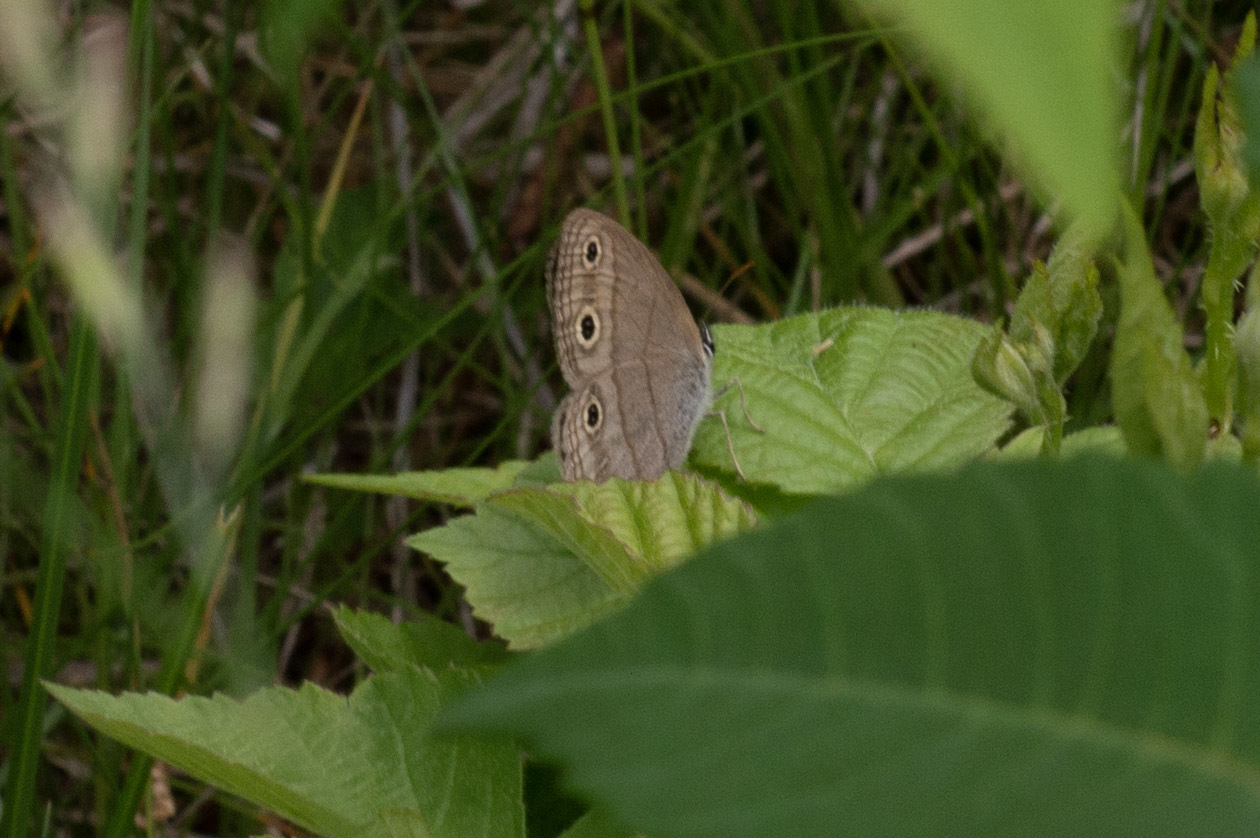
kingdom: Animalia
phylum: Arthropoda
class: Insecta
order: Lepidoptera
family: Nymphalidae
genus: Euptychia
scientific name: Euptychia cymela
